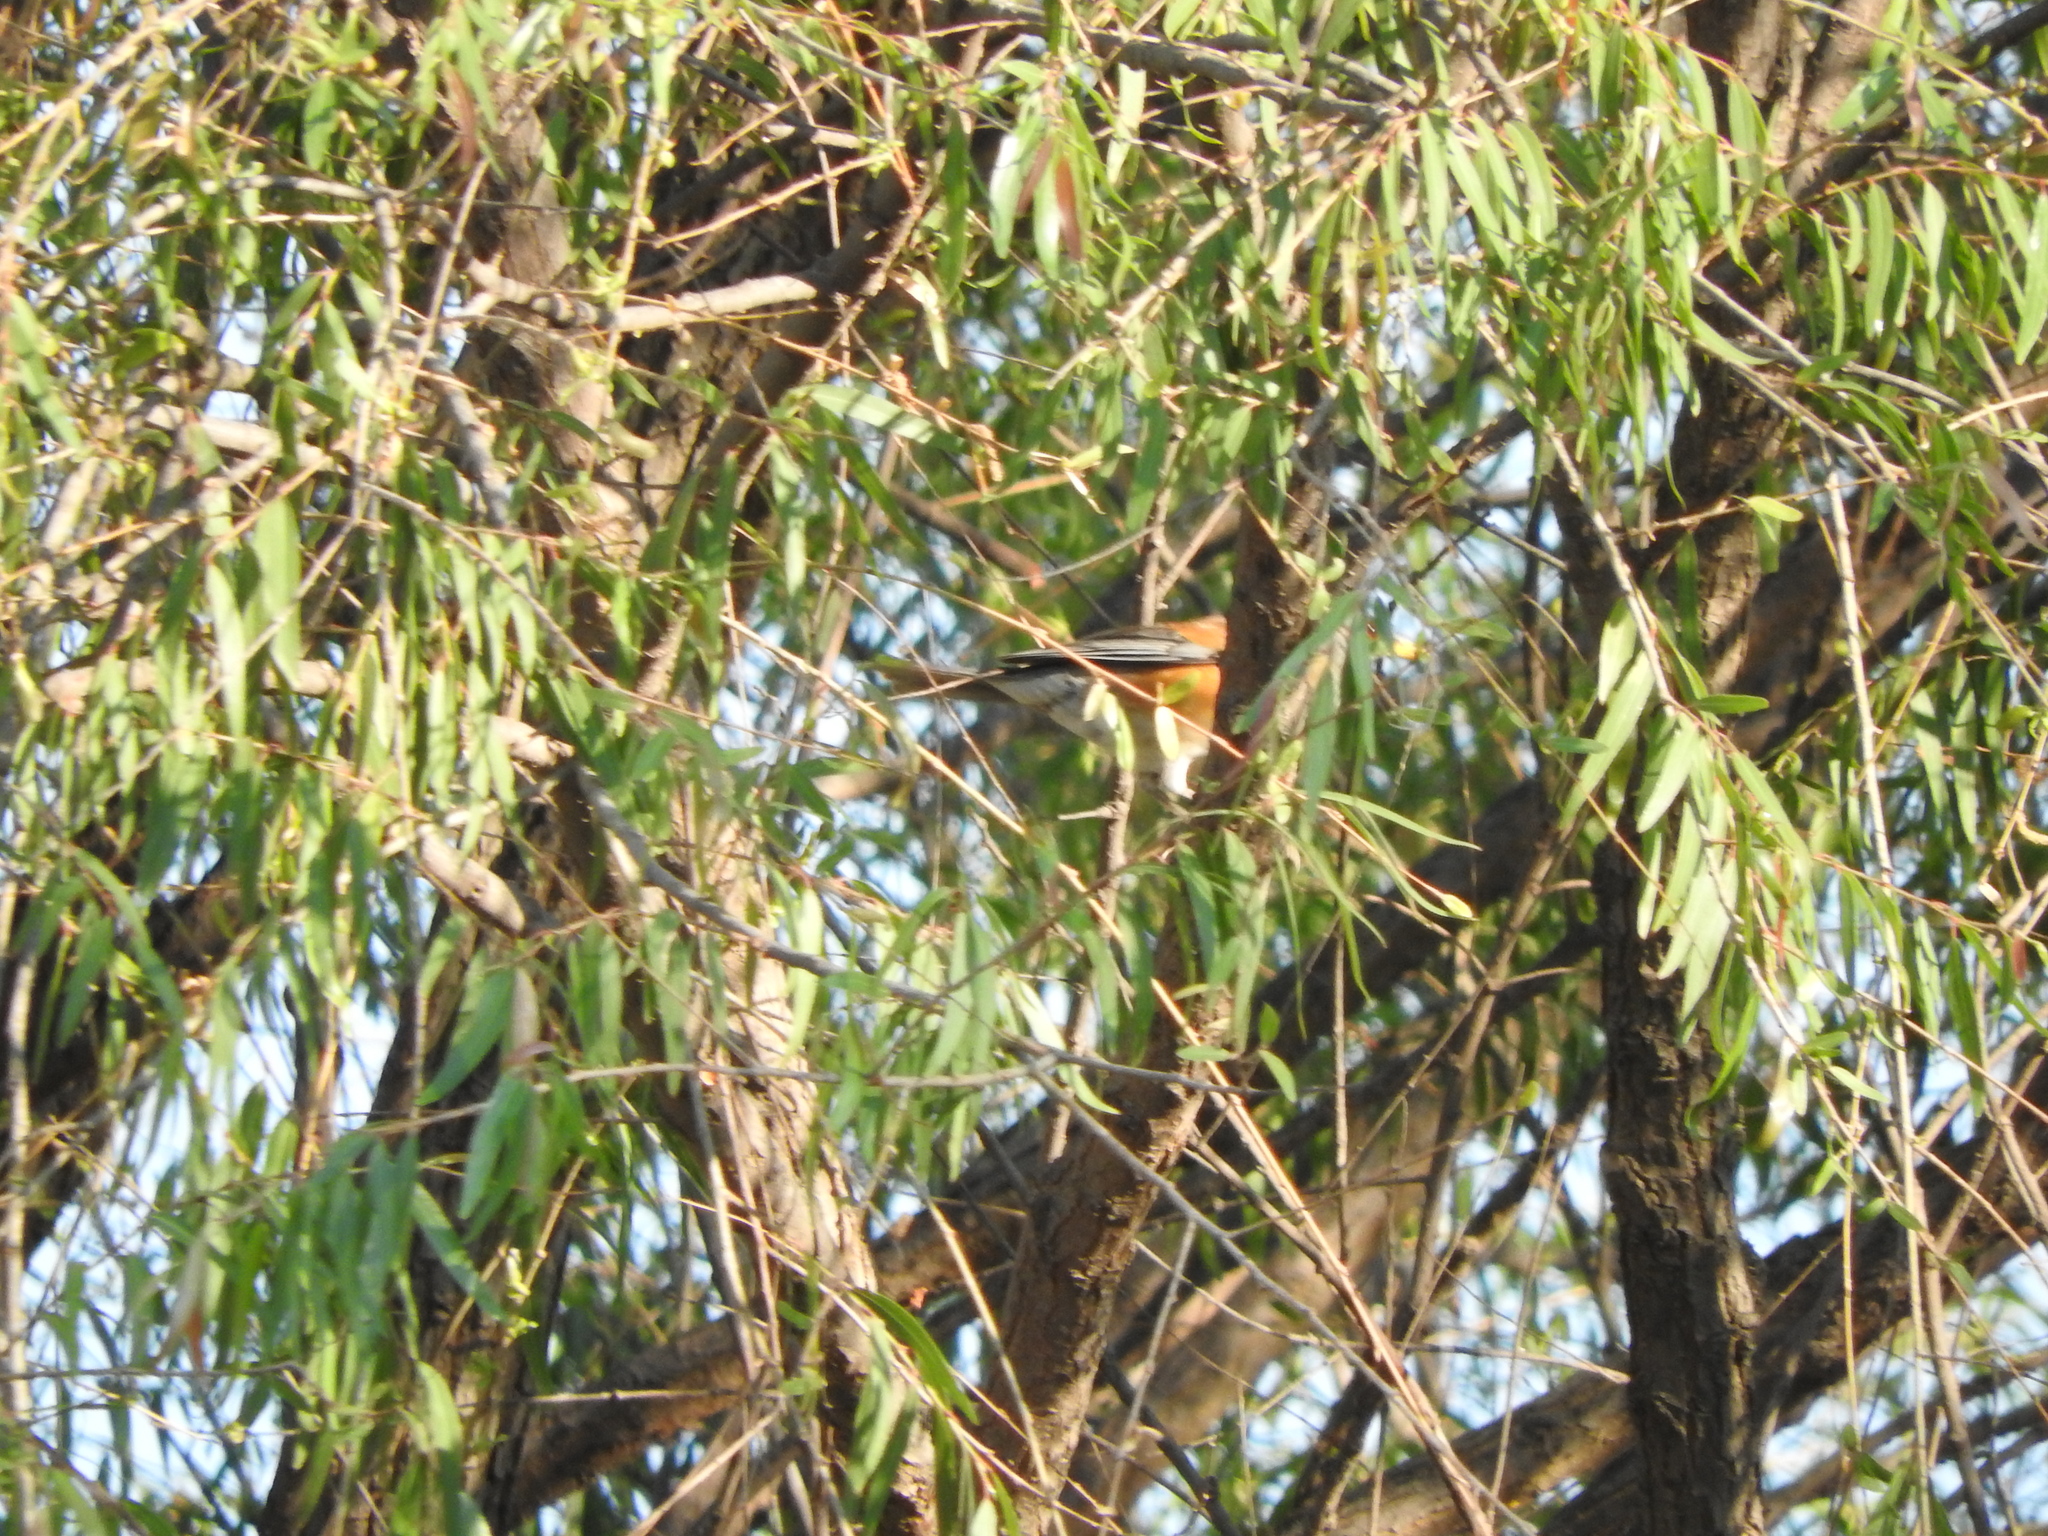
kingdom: Animalia
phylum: Chordata
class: Aves
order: Passeriformes
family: Turdidae
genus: Turdus
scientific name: Turdus rufopalliatus
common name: Rufous-backed robin
